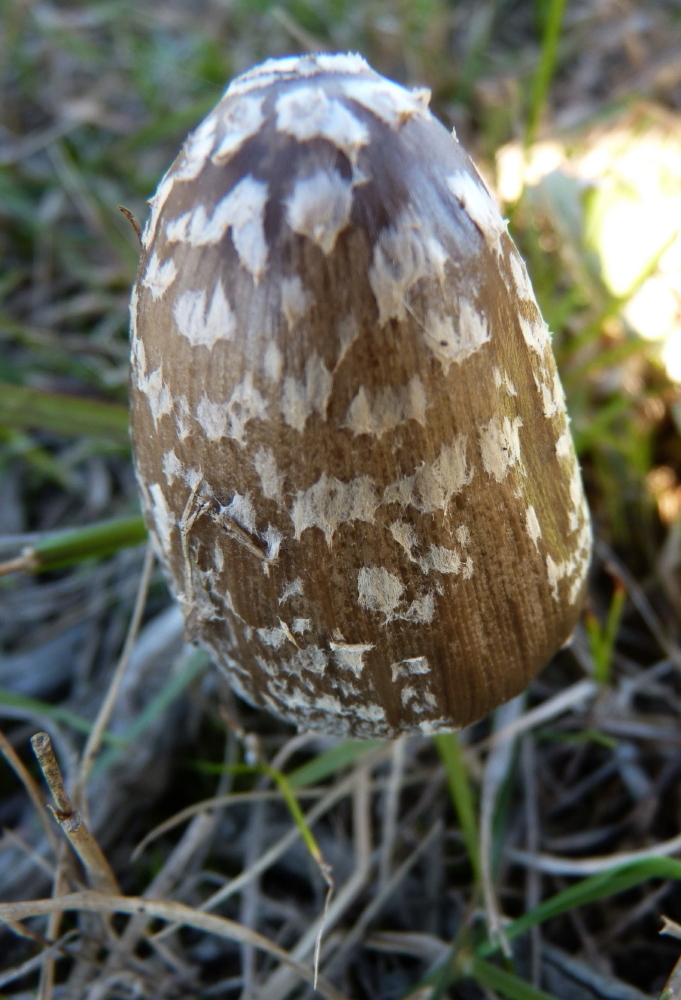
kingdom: Fungi
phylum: Basidiomycota
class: Agaricomycetes
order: Agaricales
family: Psathyrellaceae
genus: Coprinopsis
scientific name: Coprinopsis picacea
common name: Magpie inkcap
